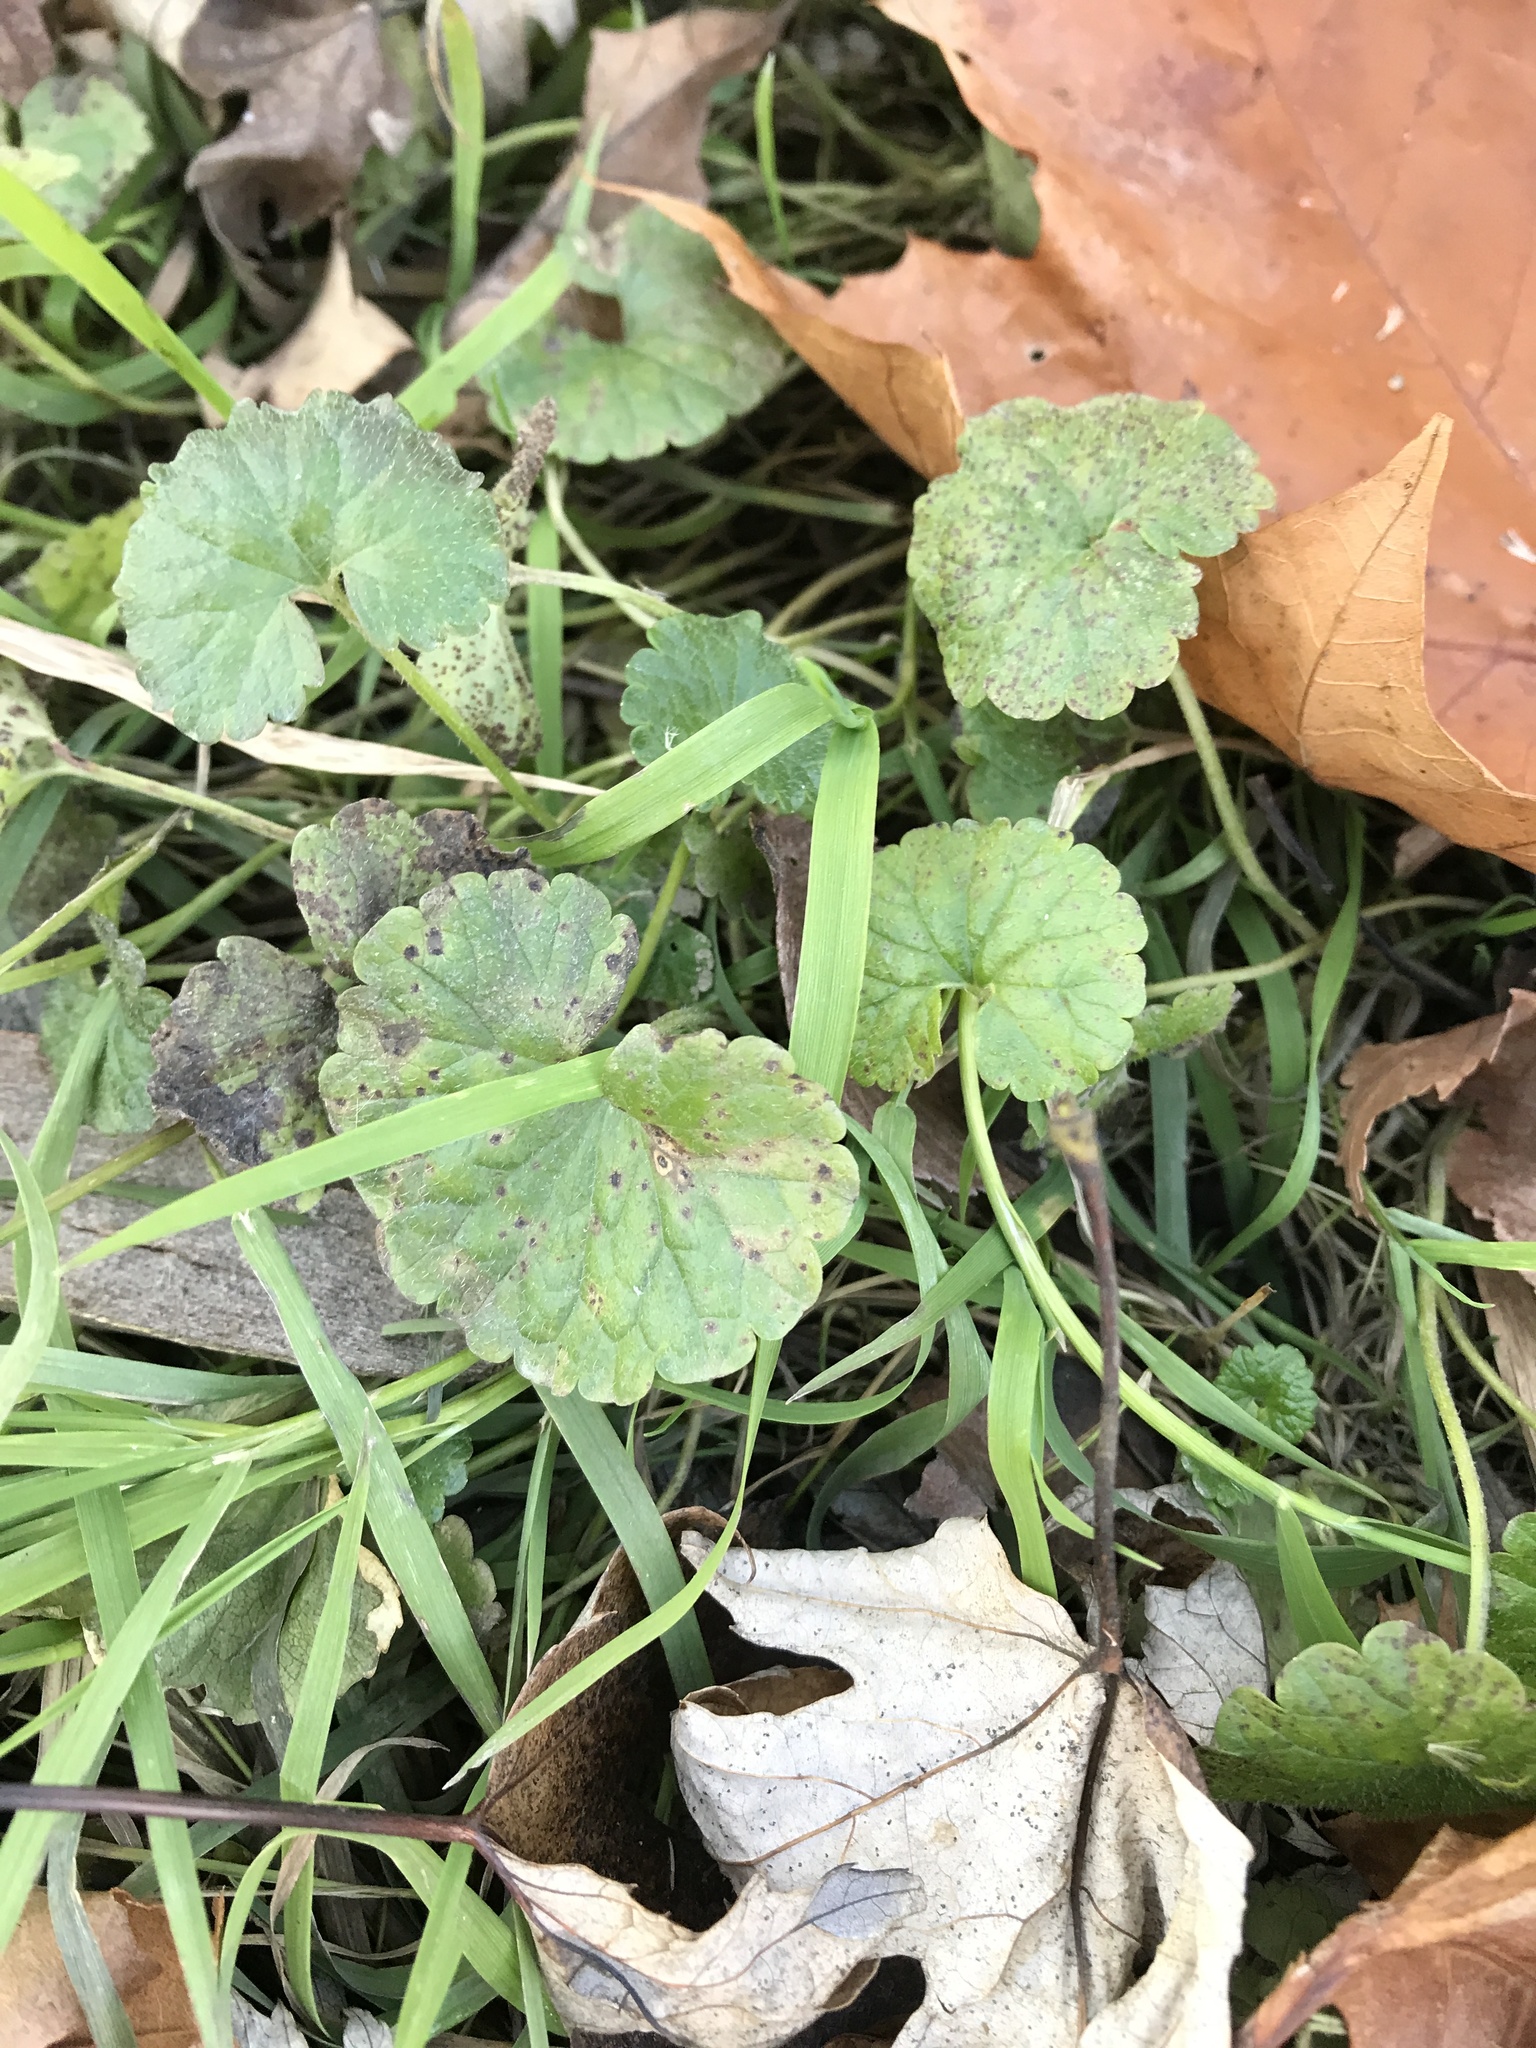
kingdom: Plantae
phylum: Tracheophyta
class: Magnoliopsida
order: Lamiales
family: Lamiaceae
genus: Glechoma
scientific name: Glechoma hederacea
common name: Ground ivy
